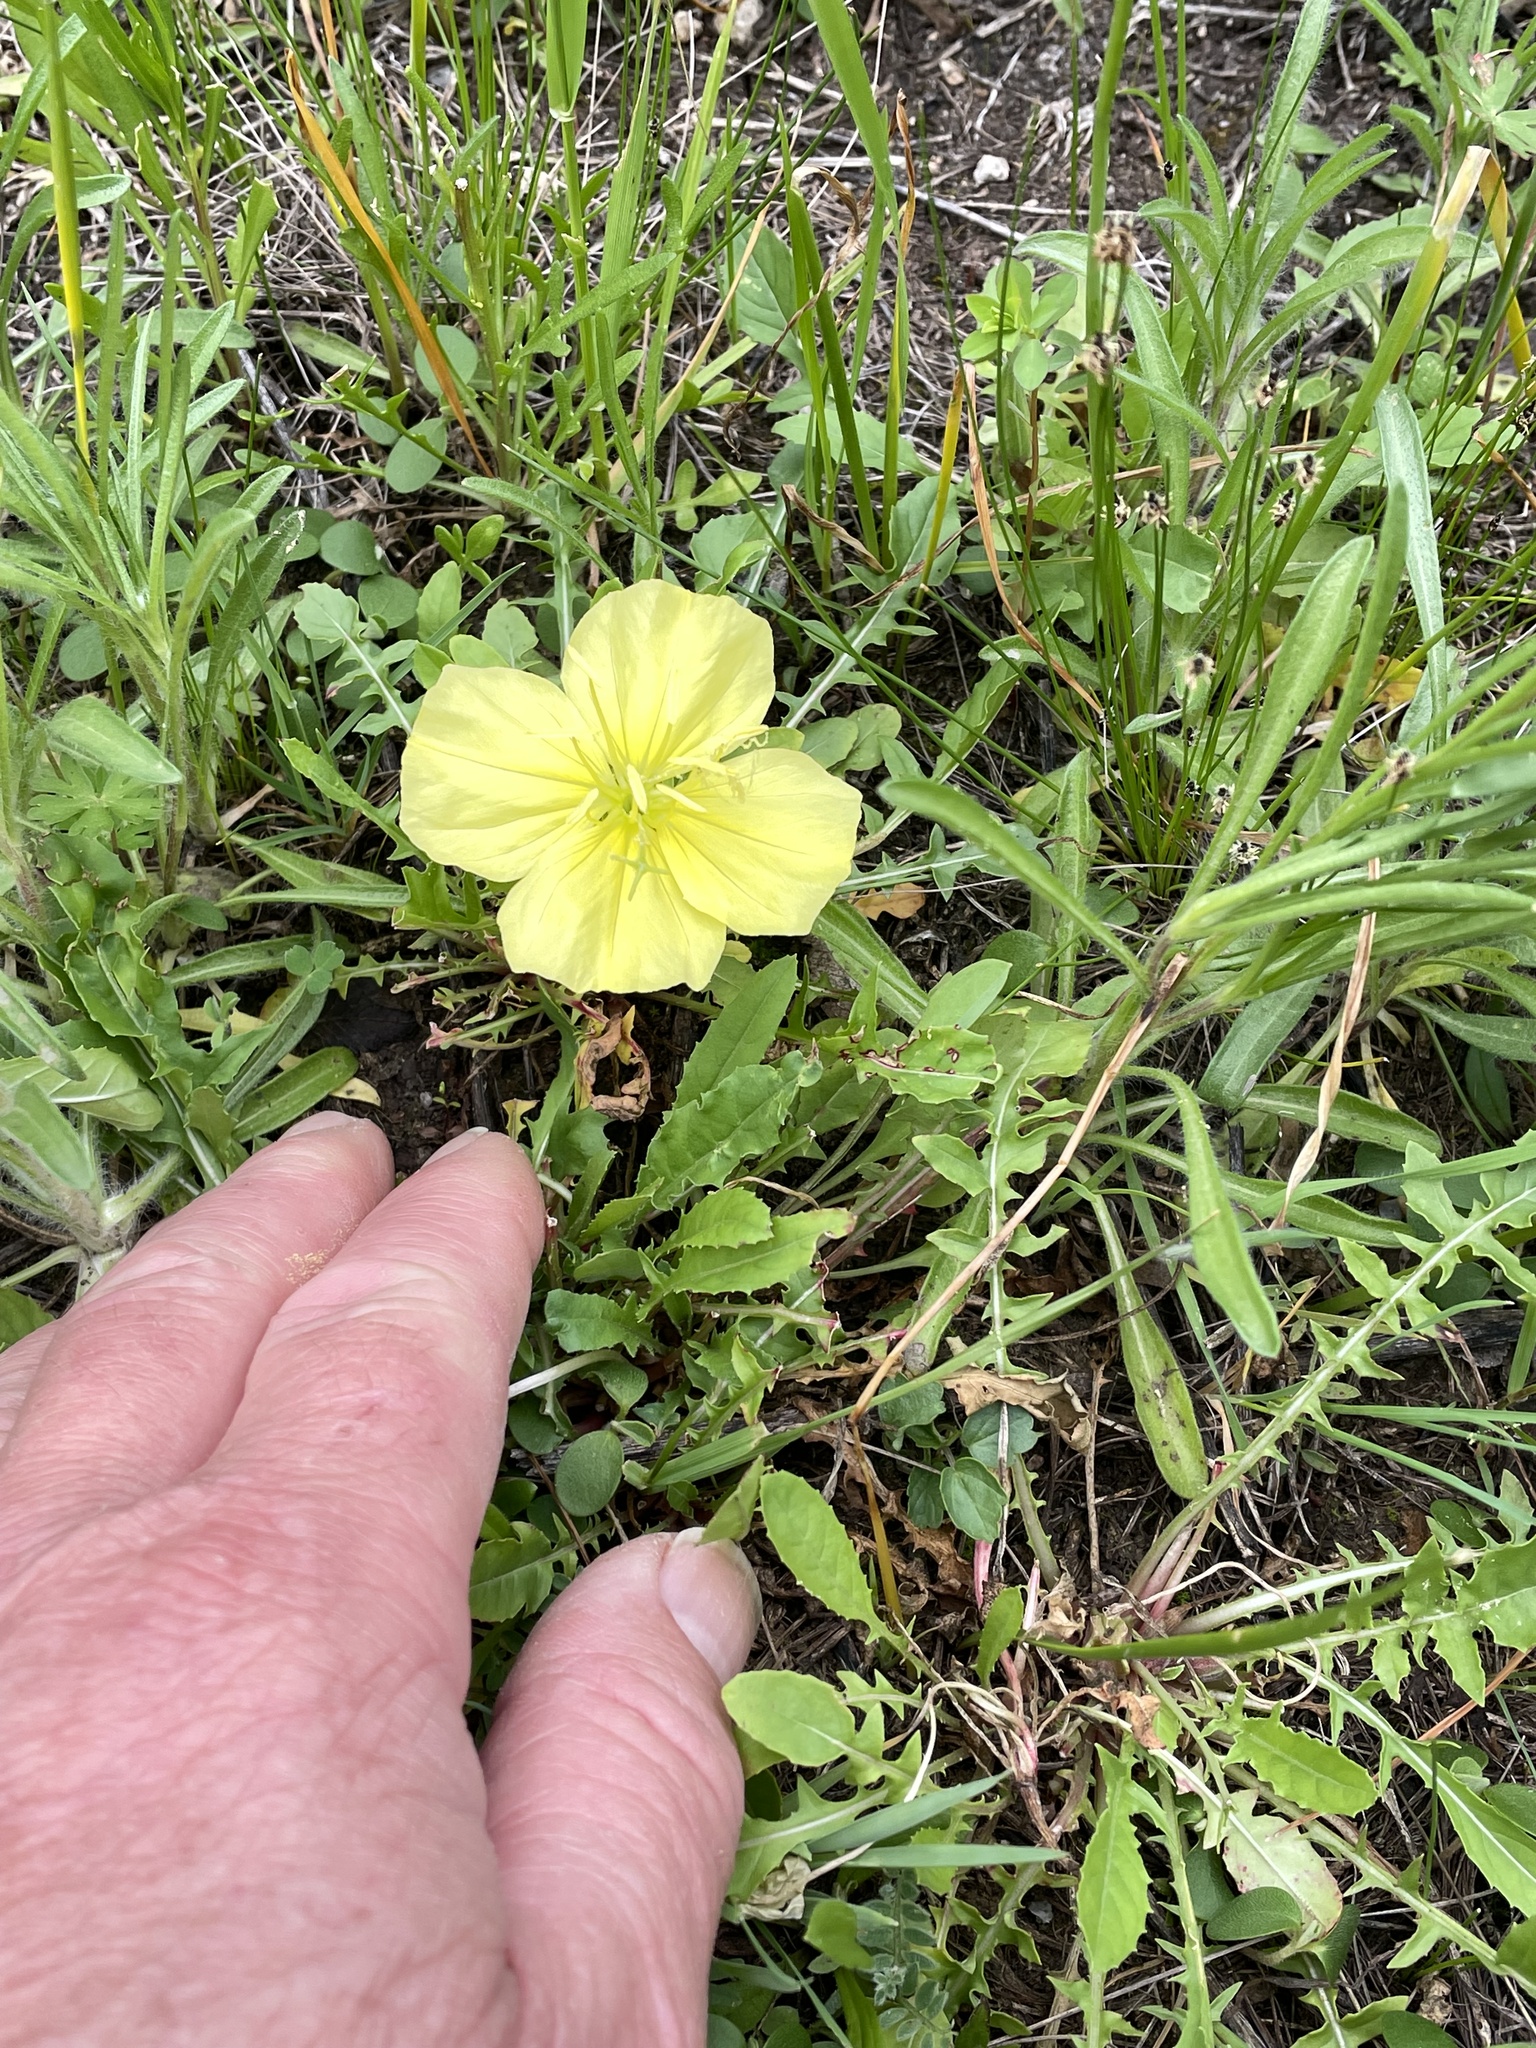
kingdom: Plantae
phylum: Tracheophyta
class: Magnoliopsida
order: Myrtales
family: Onagraceae
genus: Oenothera
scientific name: Oenothera triloba
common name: Sessile evening-primrose
